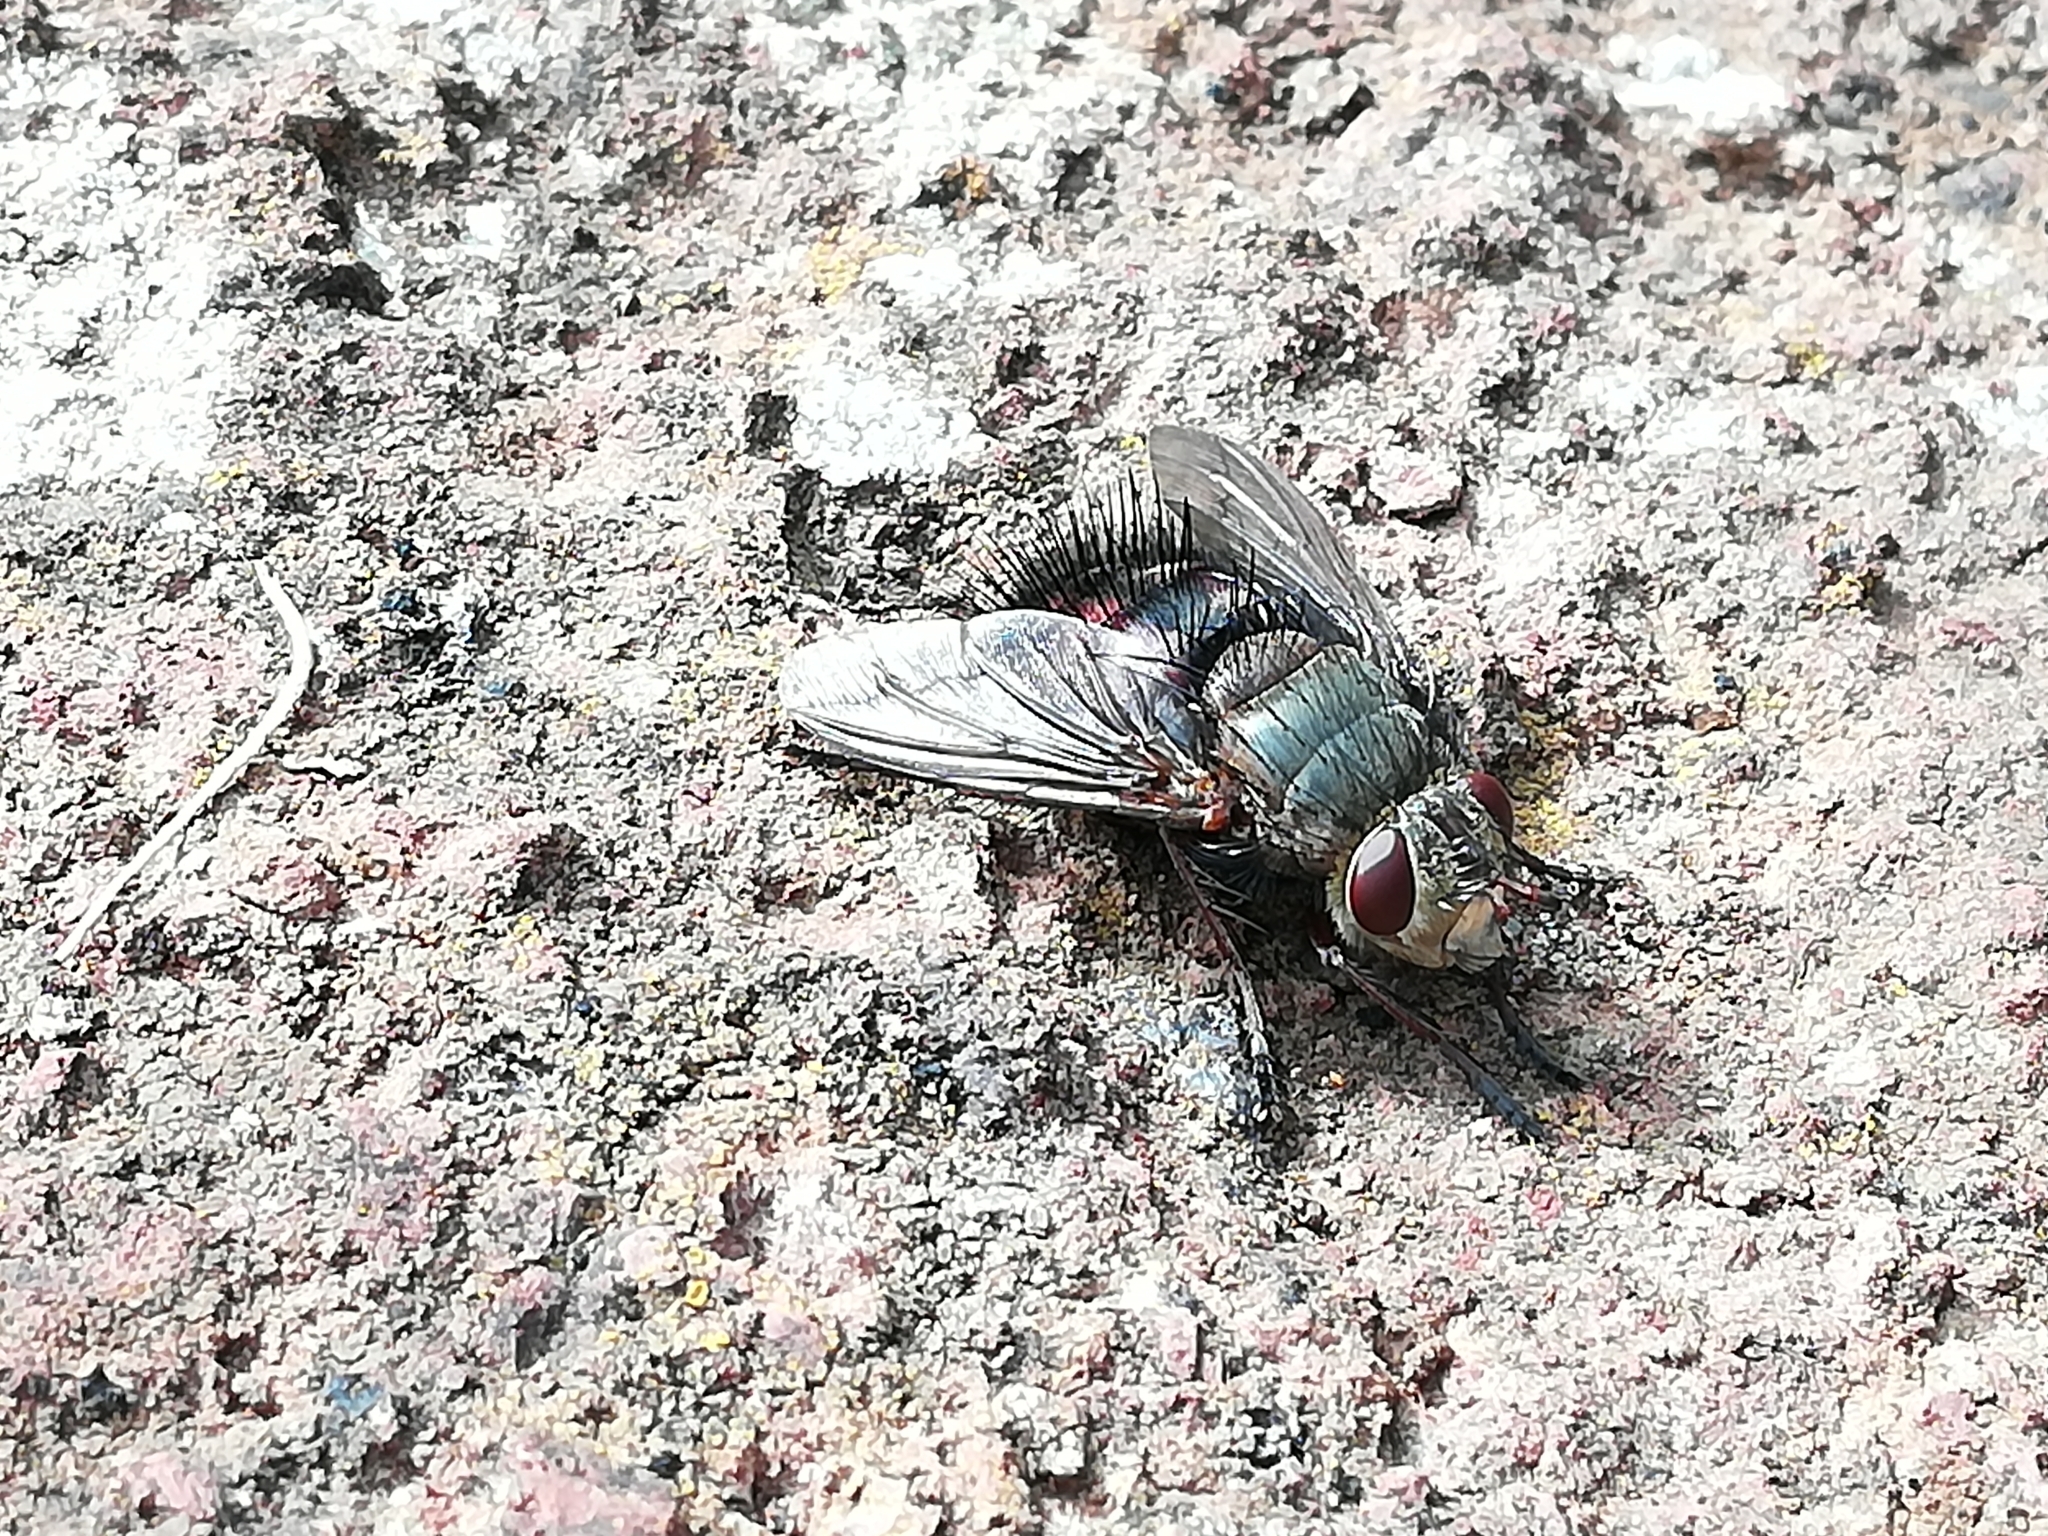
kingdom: Animalia
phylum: Arthropoda
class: Insecta
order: Diptera
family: Tachinidae
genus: Tachina
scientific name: Tachina canariensis
